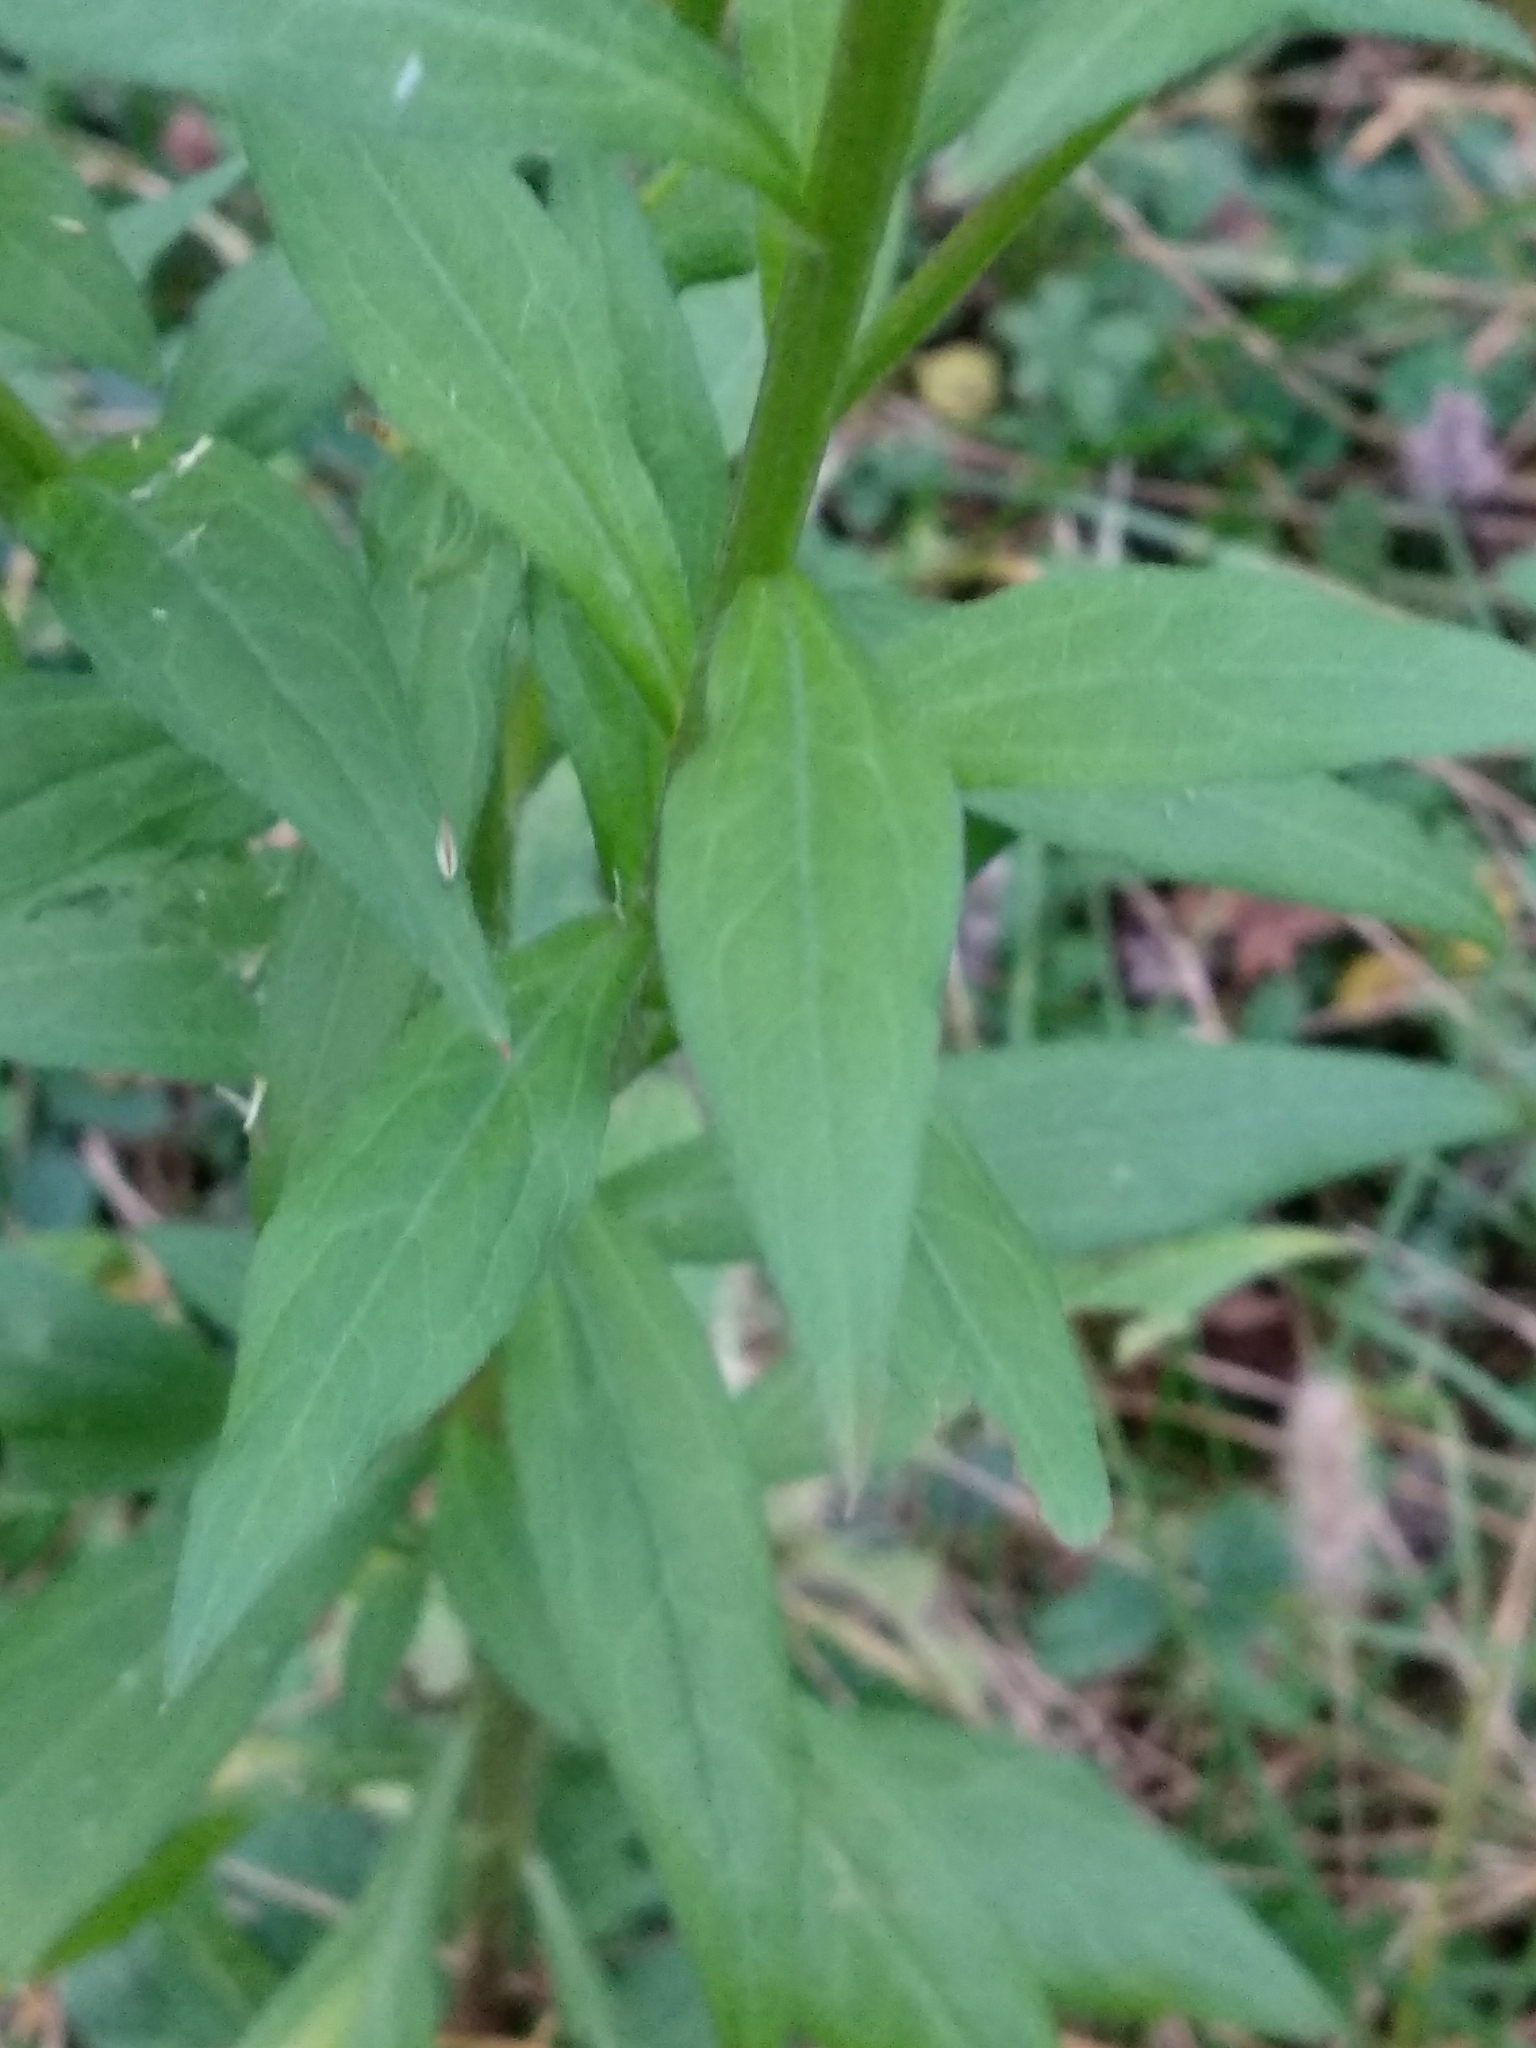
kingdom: Plantae
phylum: Tracheophyta
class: Magnoliopsida
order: Asterales
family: Asteraceae
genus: Erigeron
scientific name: Erigeron annuus
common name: Tall fleabane
